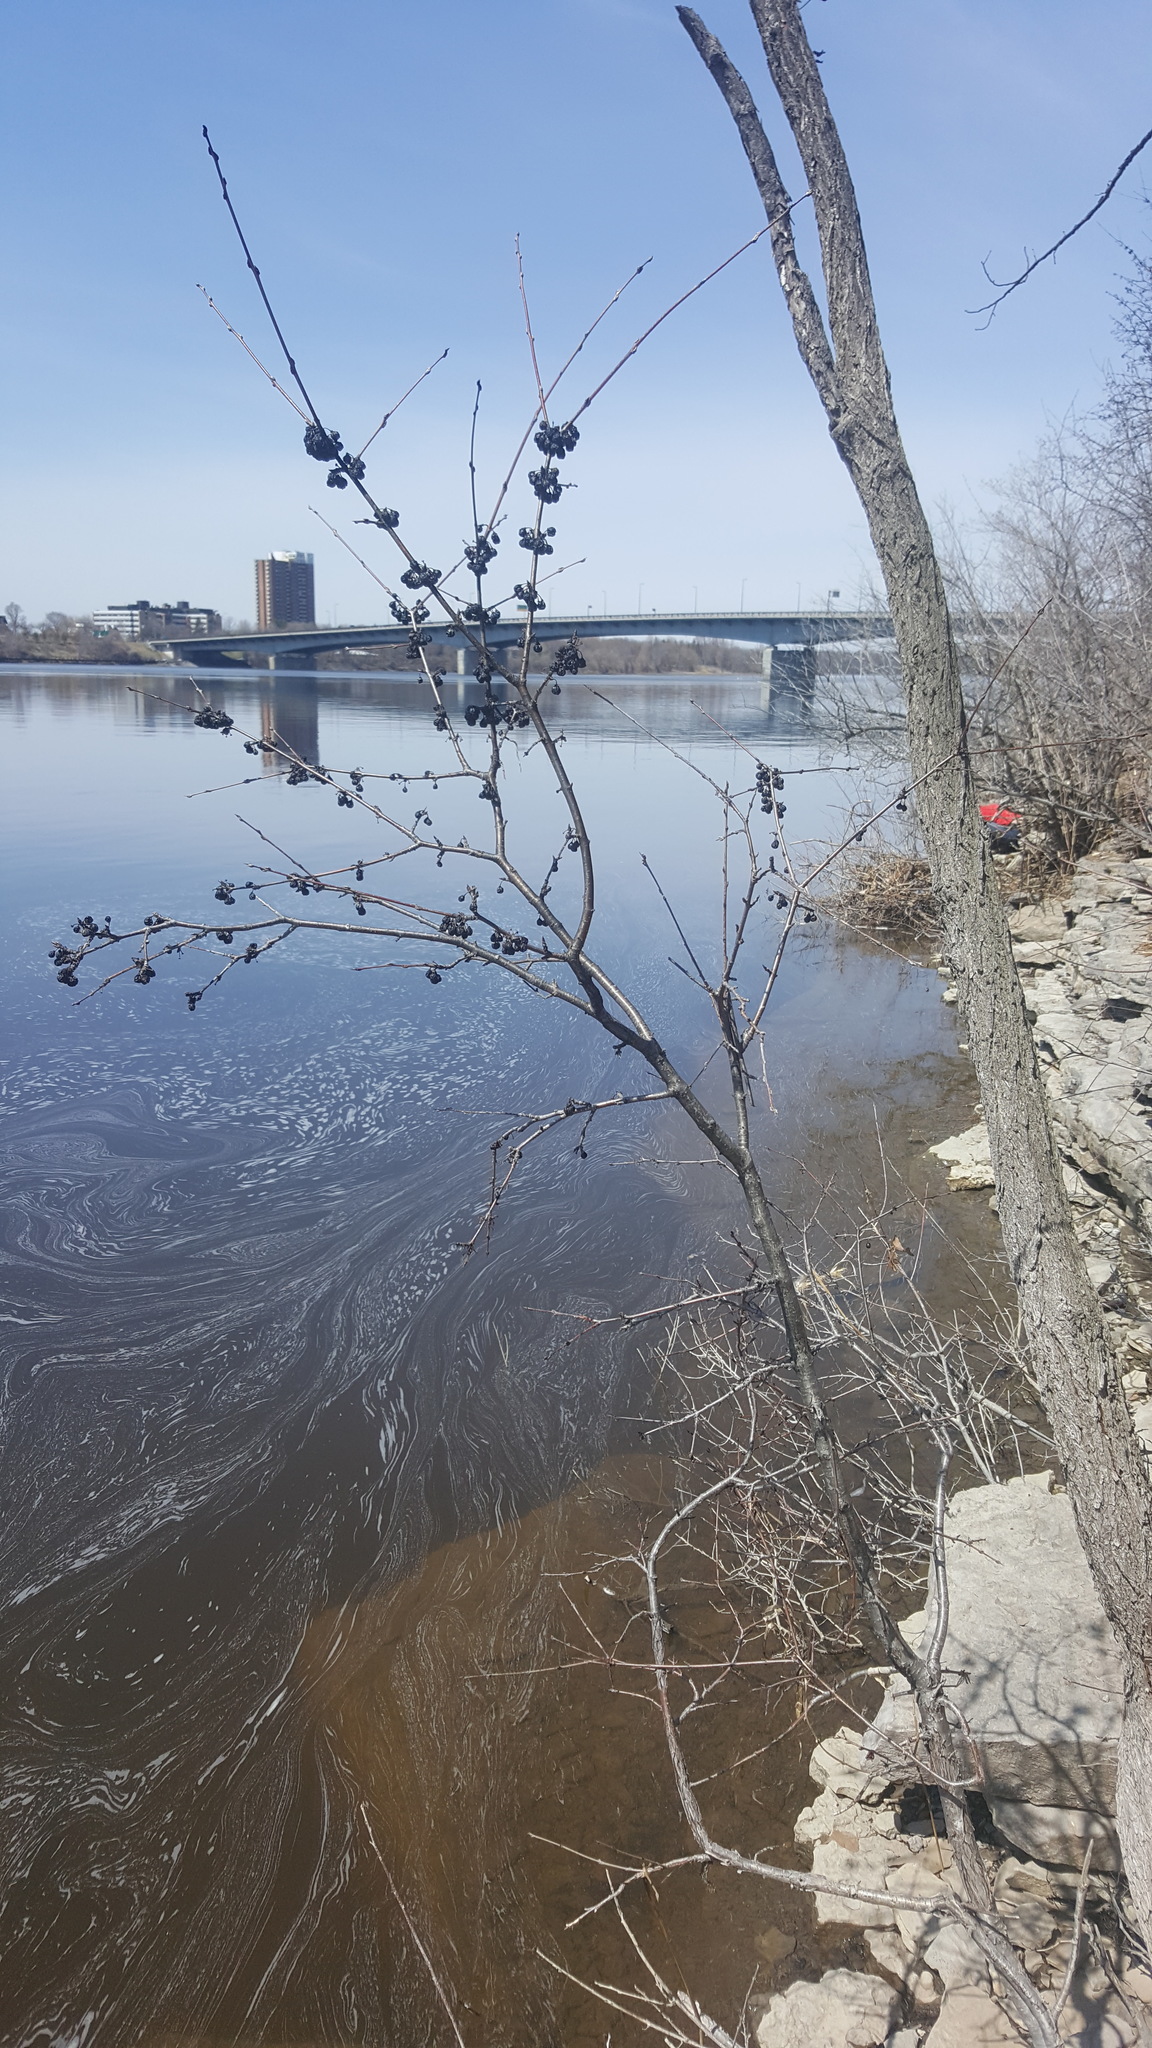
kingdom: Plantae
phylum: Tracheophyta
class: Magnoliopsida
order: Rosales
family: Rhamnaceae
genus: Rhamnus
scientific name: Rhamnus cathartica
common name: Common buckthorn
